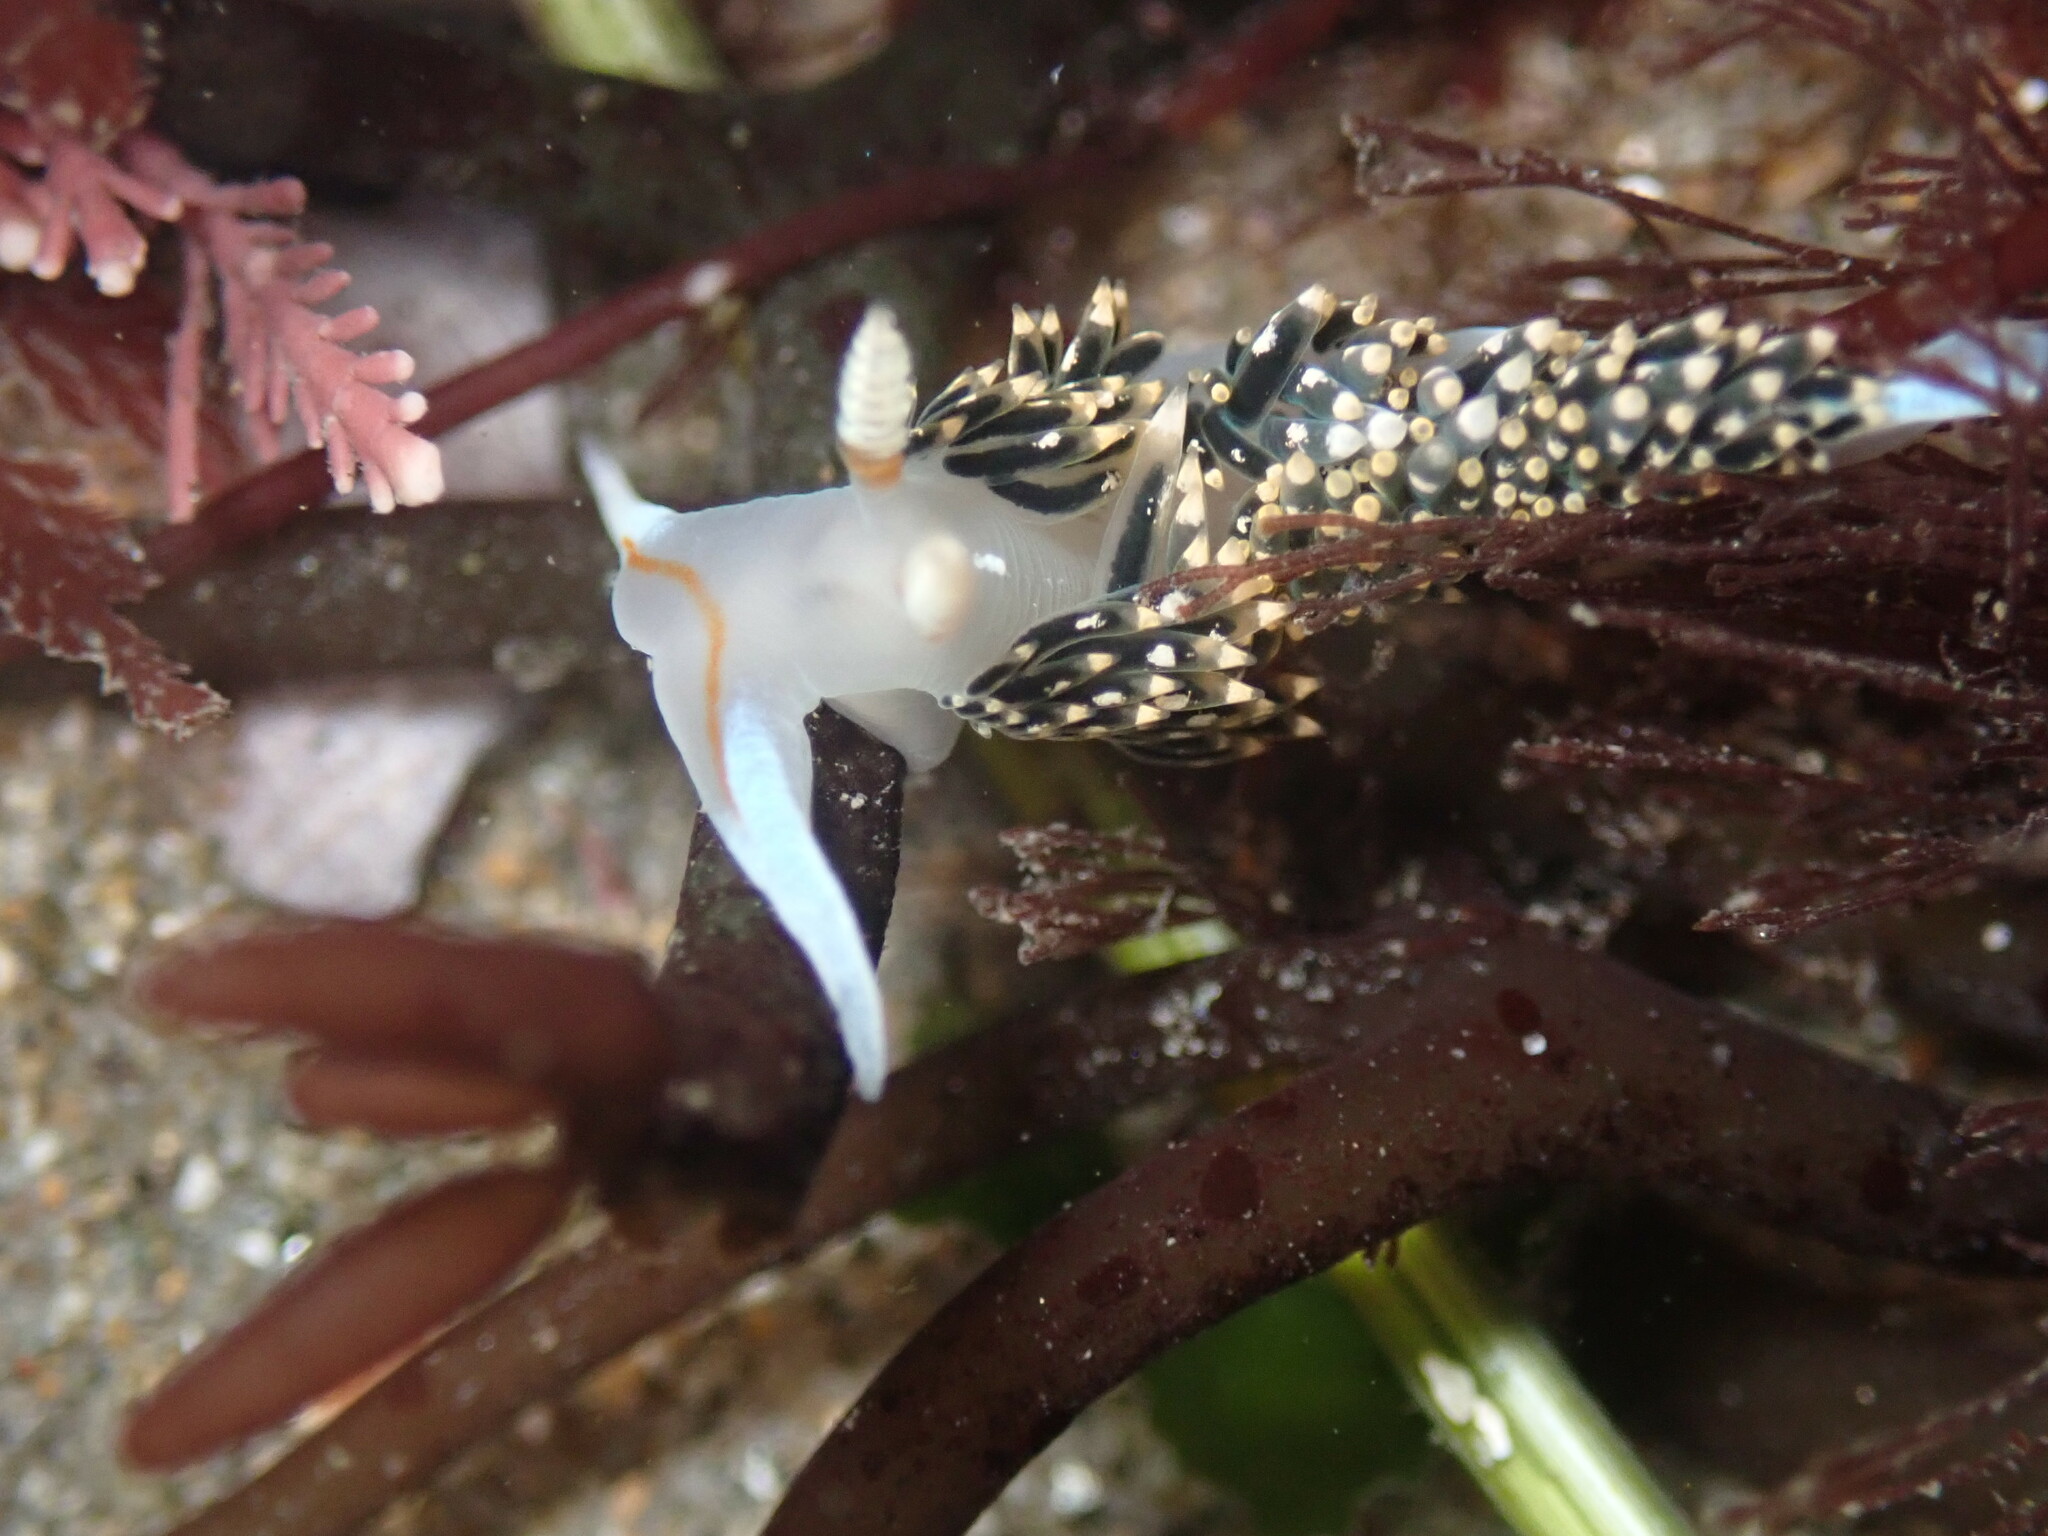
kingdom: Animalia
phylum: Mollusca
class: Gastropoda
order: Nudibranchia
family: Facelinidae
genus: Phidiana
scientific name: Phidiana hiltoni
